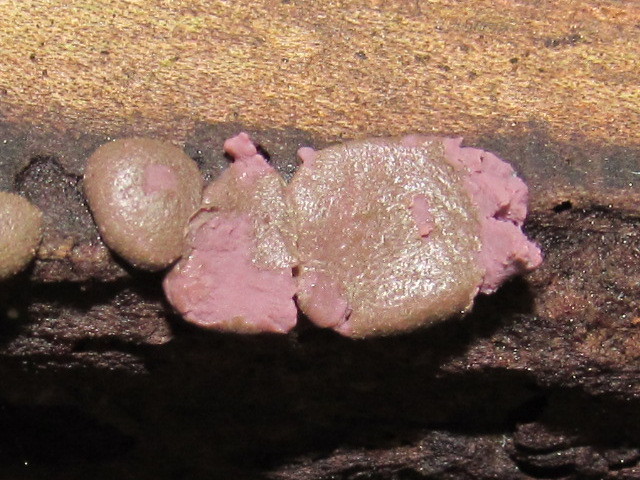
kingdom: Protozoa
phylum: Mycetozoa
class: Myxomycetes
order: Cribrariales
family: Tubiferaceae
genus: Lycogala
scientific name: Lycogala epidendrum
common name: Wolf's milk
